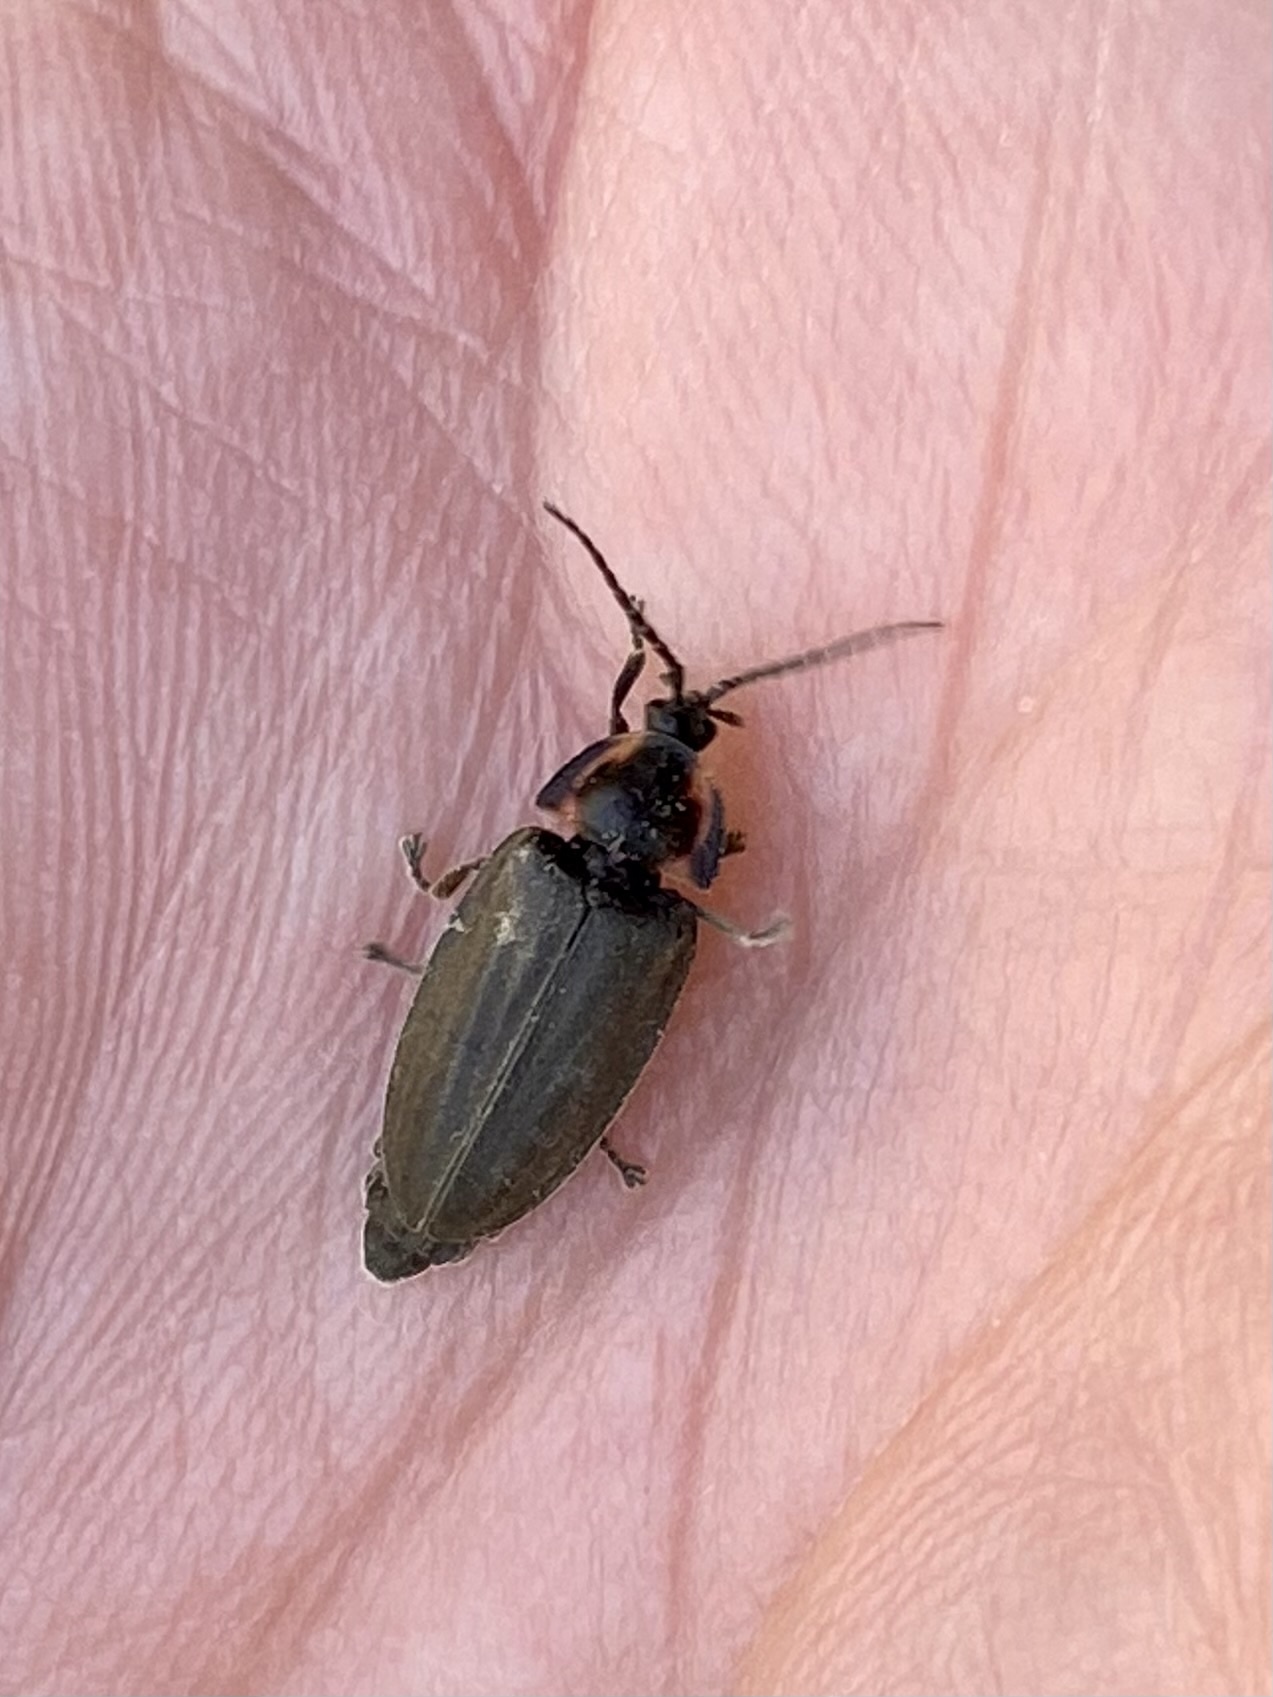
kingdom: Animalia
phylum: Arthropoda
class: Insecta
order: Coleoptera
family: Lampyridae
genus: Photinus
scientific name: Photinus corrusca
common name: Winter firefly
